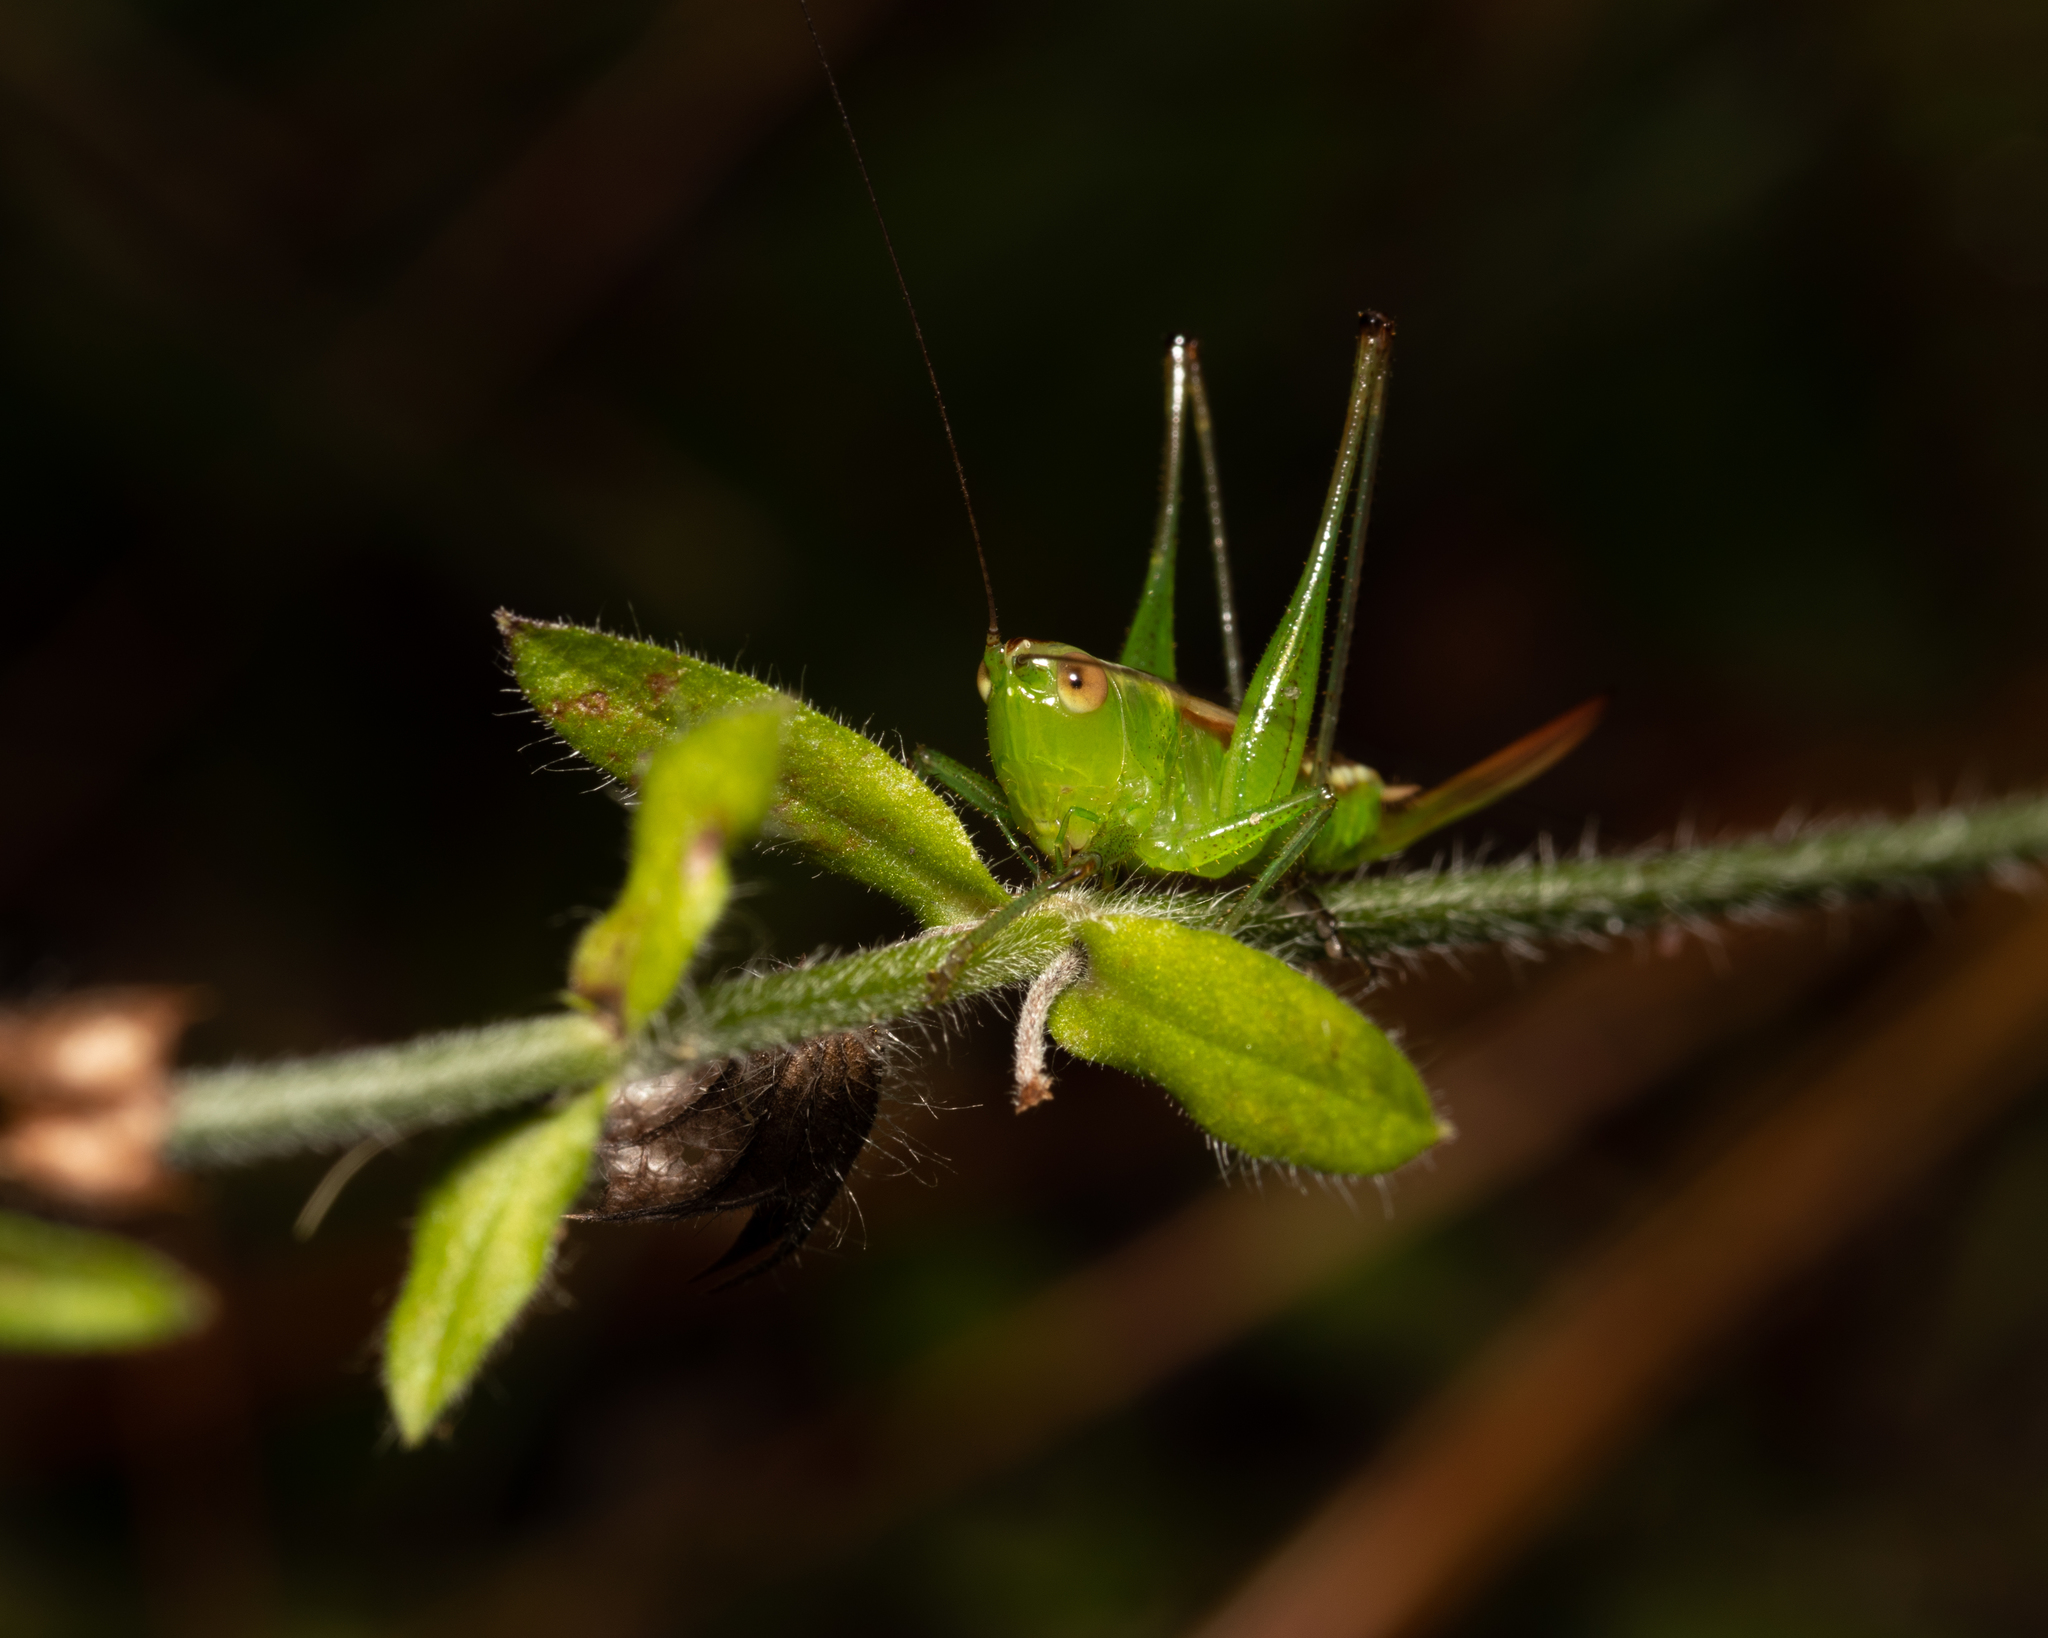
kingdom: Animalia
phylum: Arthropoda
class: Insecta
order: Orthoptera
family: Tettigoniidae
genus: Conocephalus
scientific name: Conocephalus brevipennis
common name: Short-winged meadow katydid
